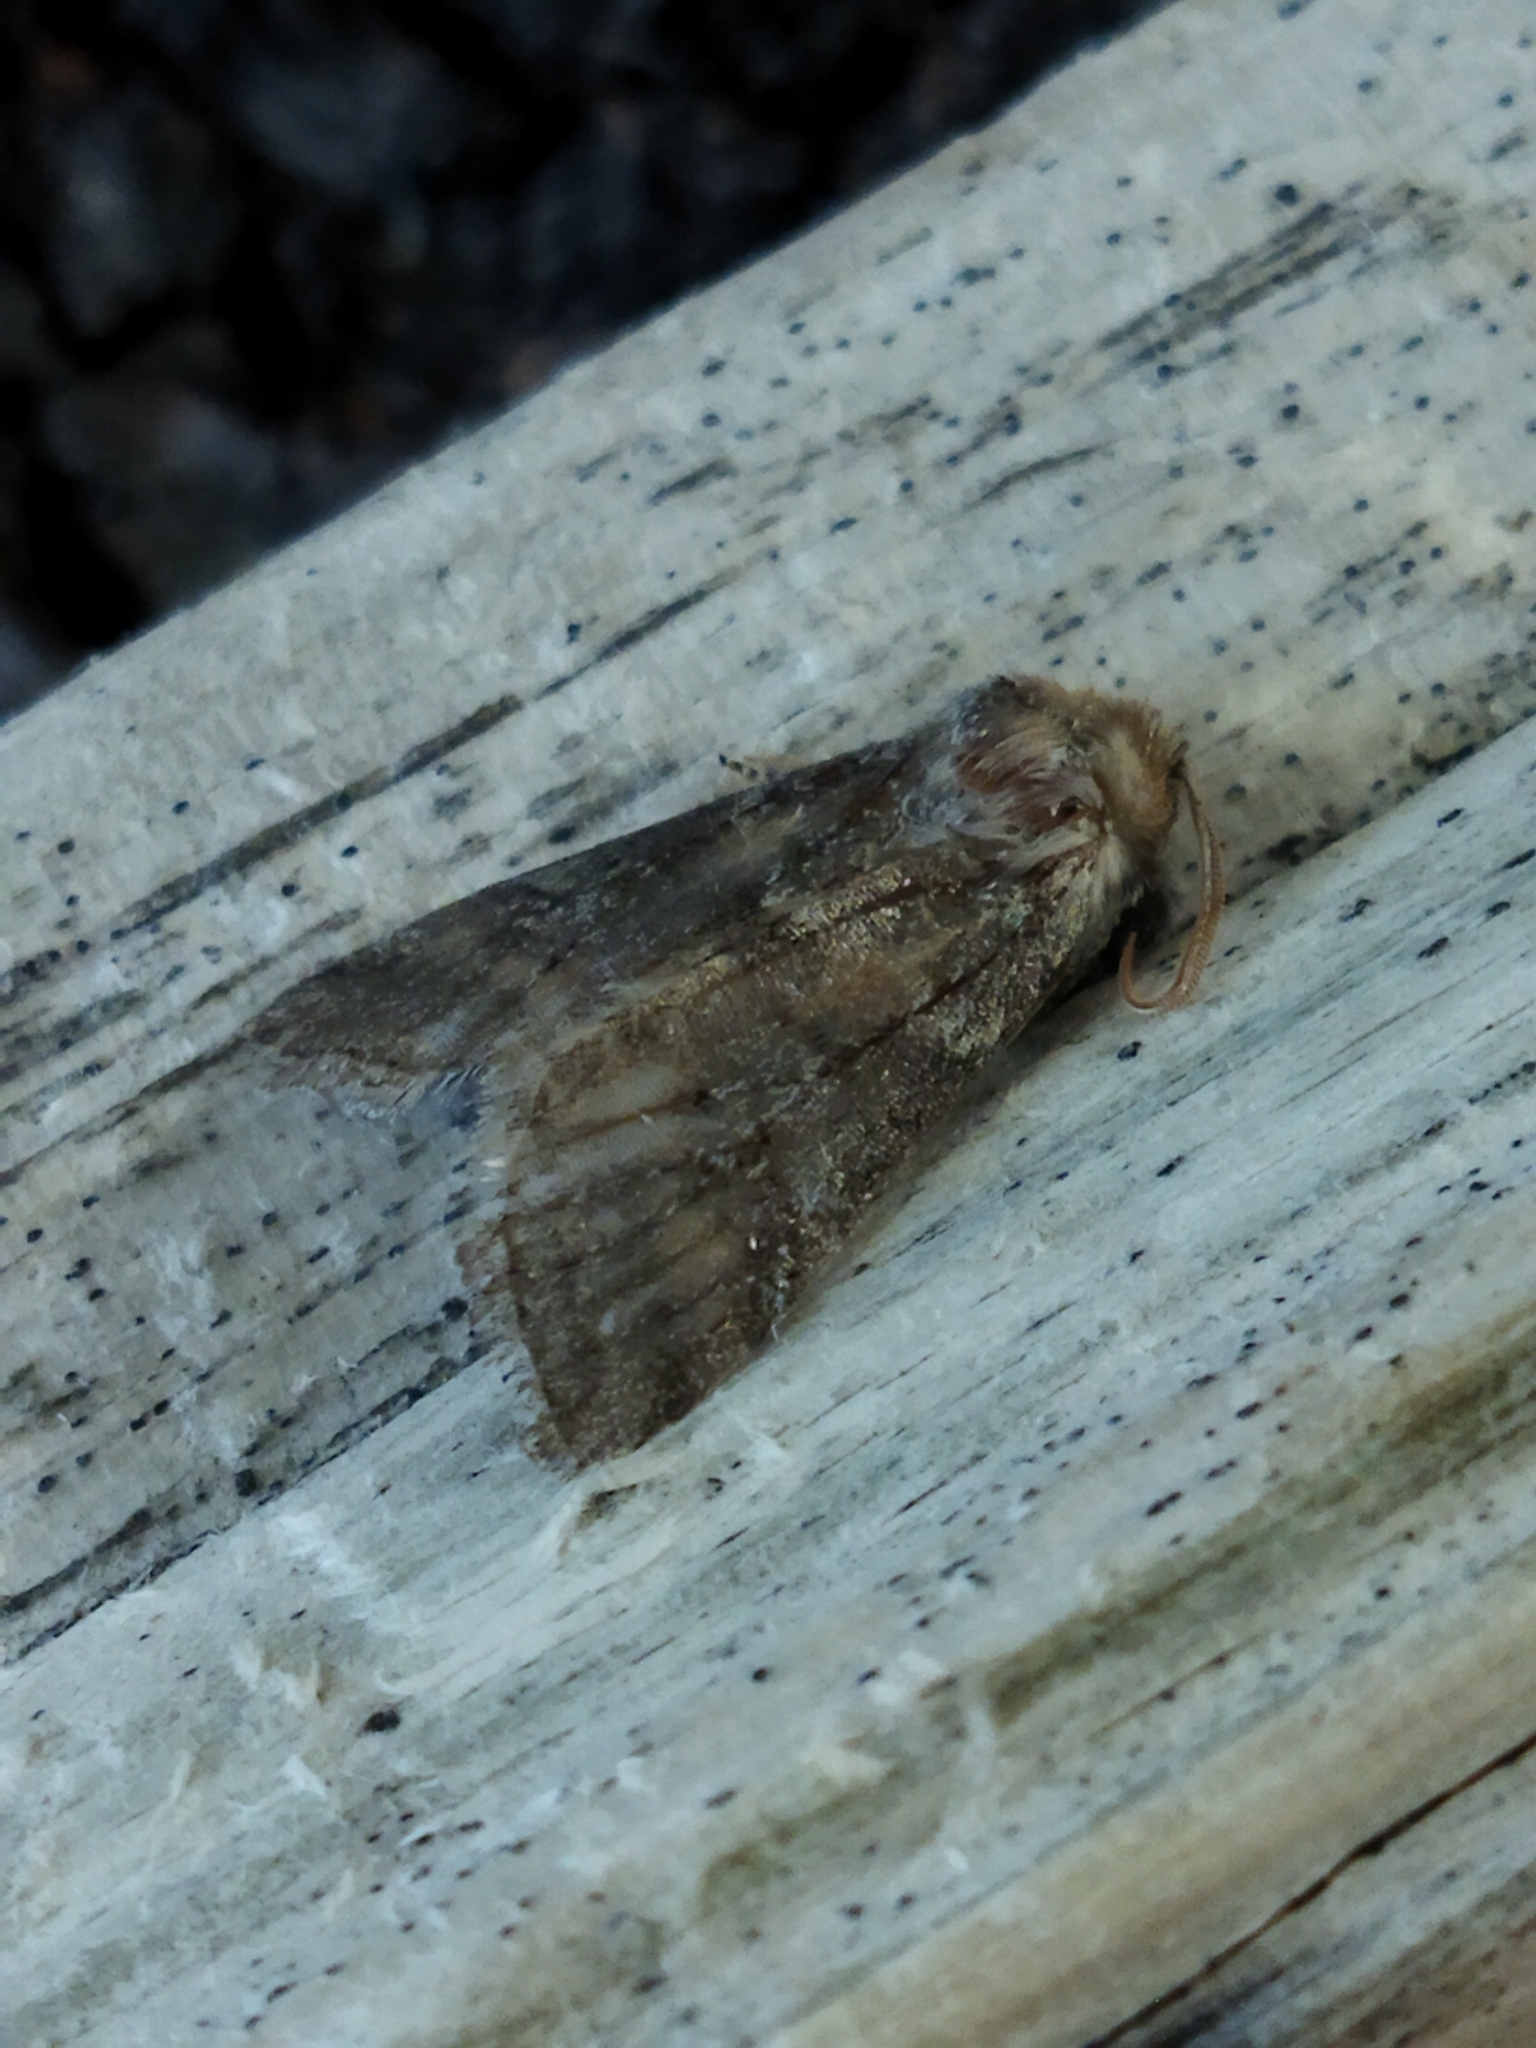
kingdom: Animalia
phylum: Arthropoda
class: Insecta
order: Lepidoptera
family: Drepanidae
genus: Polyploca
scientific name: Polyploca ruficollis
